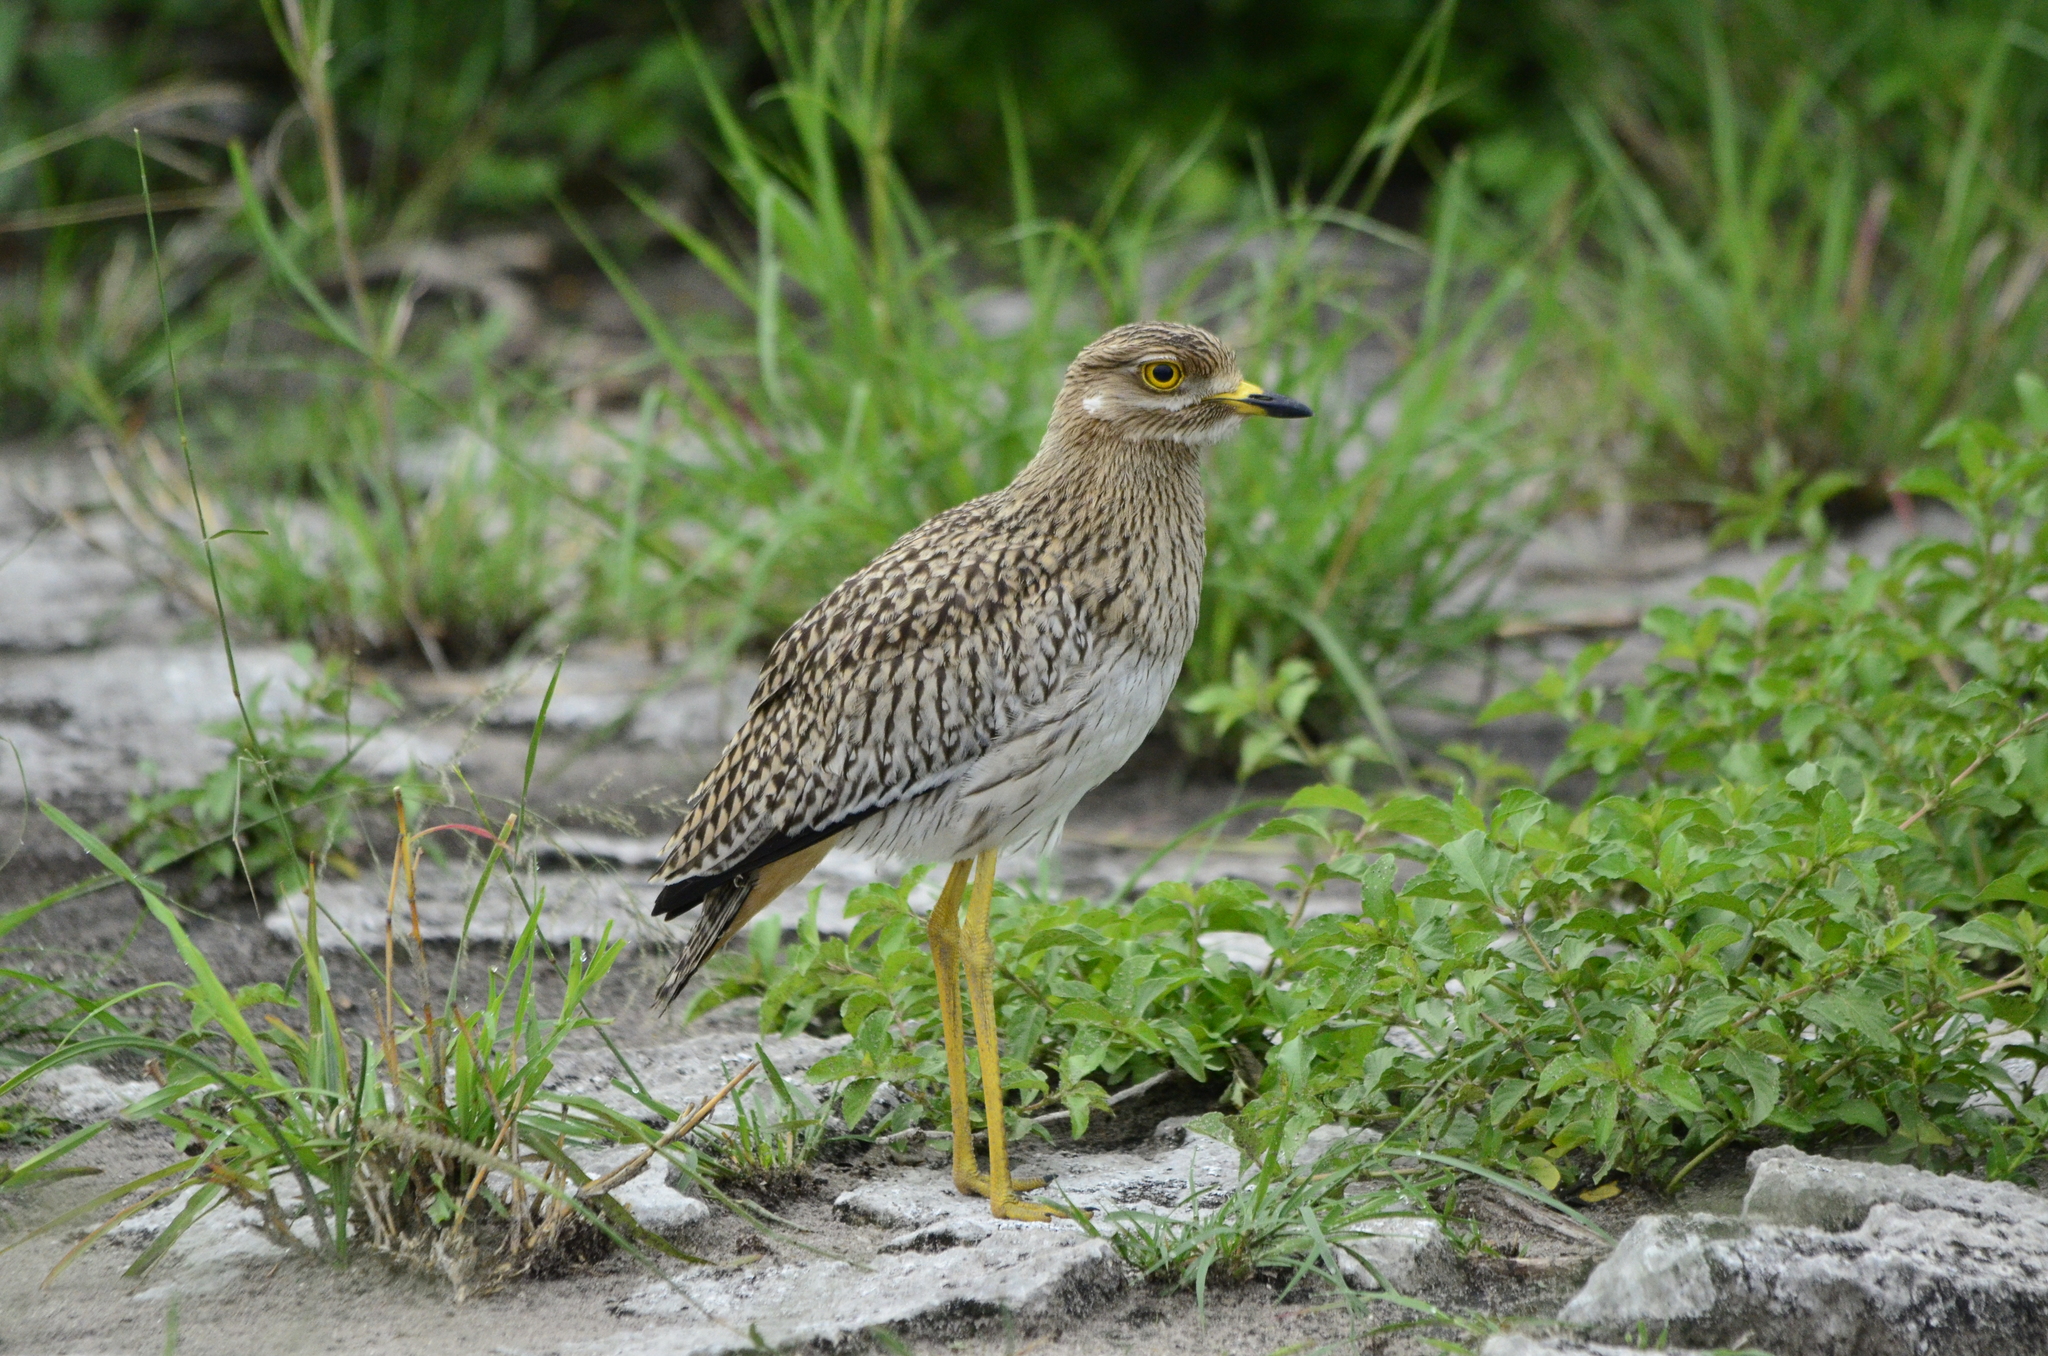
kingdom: Animalia
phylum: Chordata
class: Aves
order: Charadriiformes
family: Burhinidae
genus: Burhinus
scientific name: Burhinus capensis
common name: Spotted thick-knee
